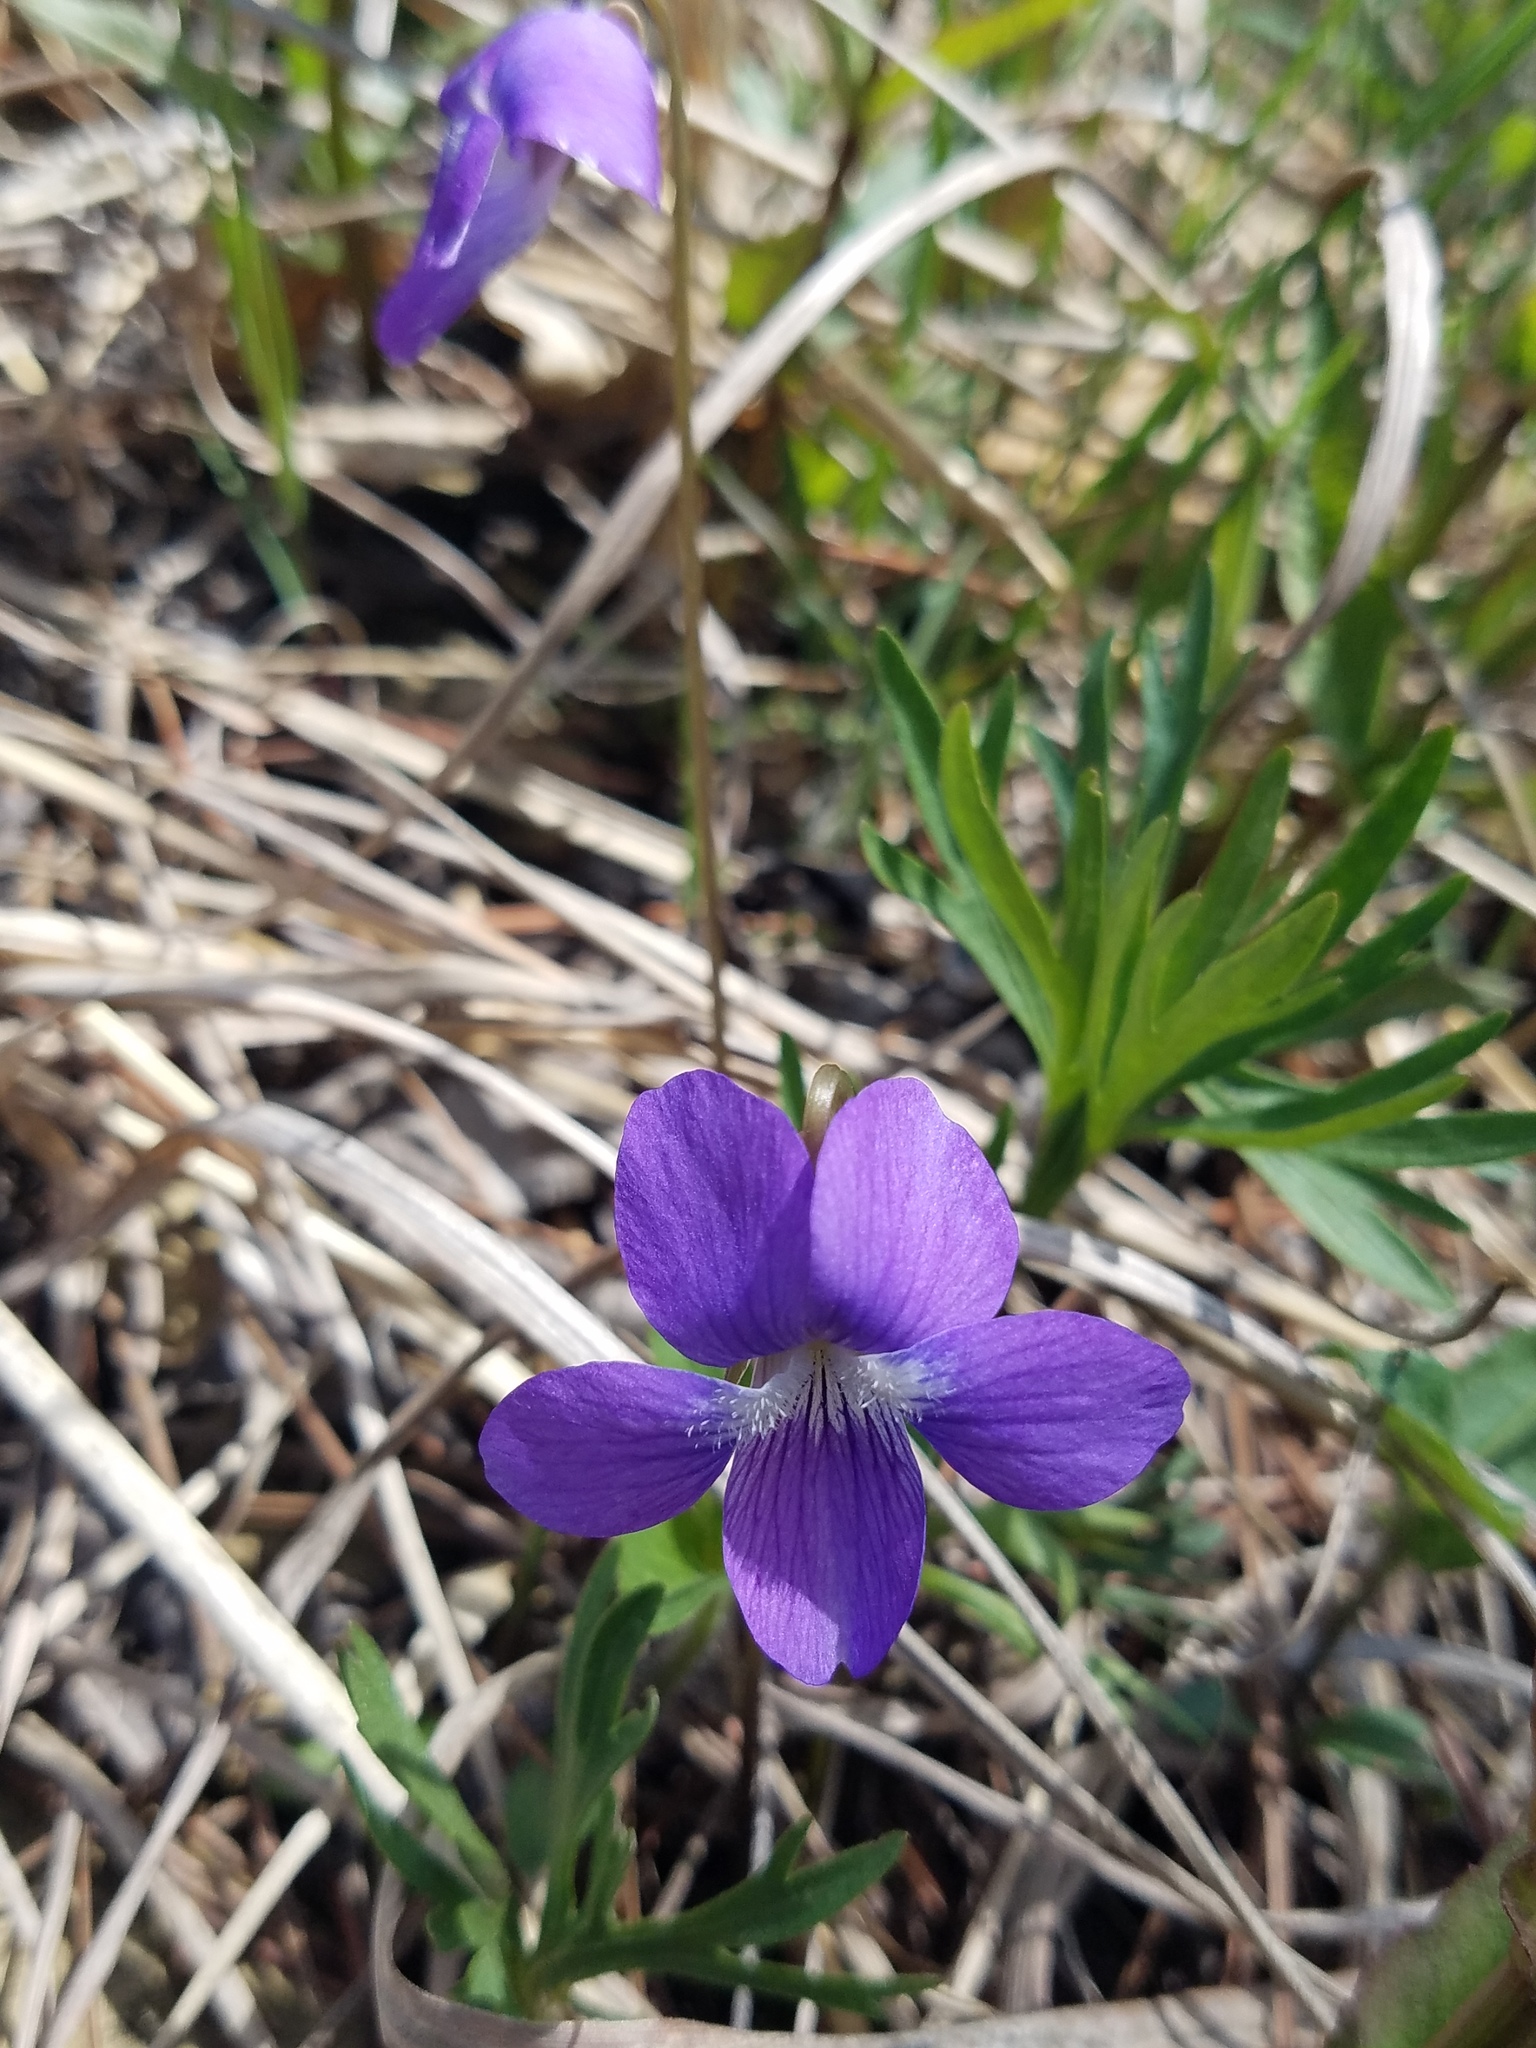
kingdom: Plantae
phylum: Tracheophyta
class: Magnoliopsida
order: Malpighiales
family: Violaceae
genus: Viola
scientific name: Viola pedatifida
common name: Prairie violet
